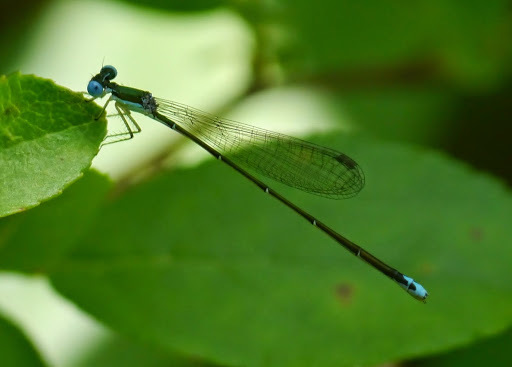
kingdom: Animalia
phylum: Arthropoda
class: Insecta
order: Odonata
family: Coenagrionidae
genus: Nehalennia
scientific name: Nehalennia gracilis
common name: Sphagnum sprite
